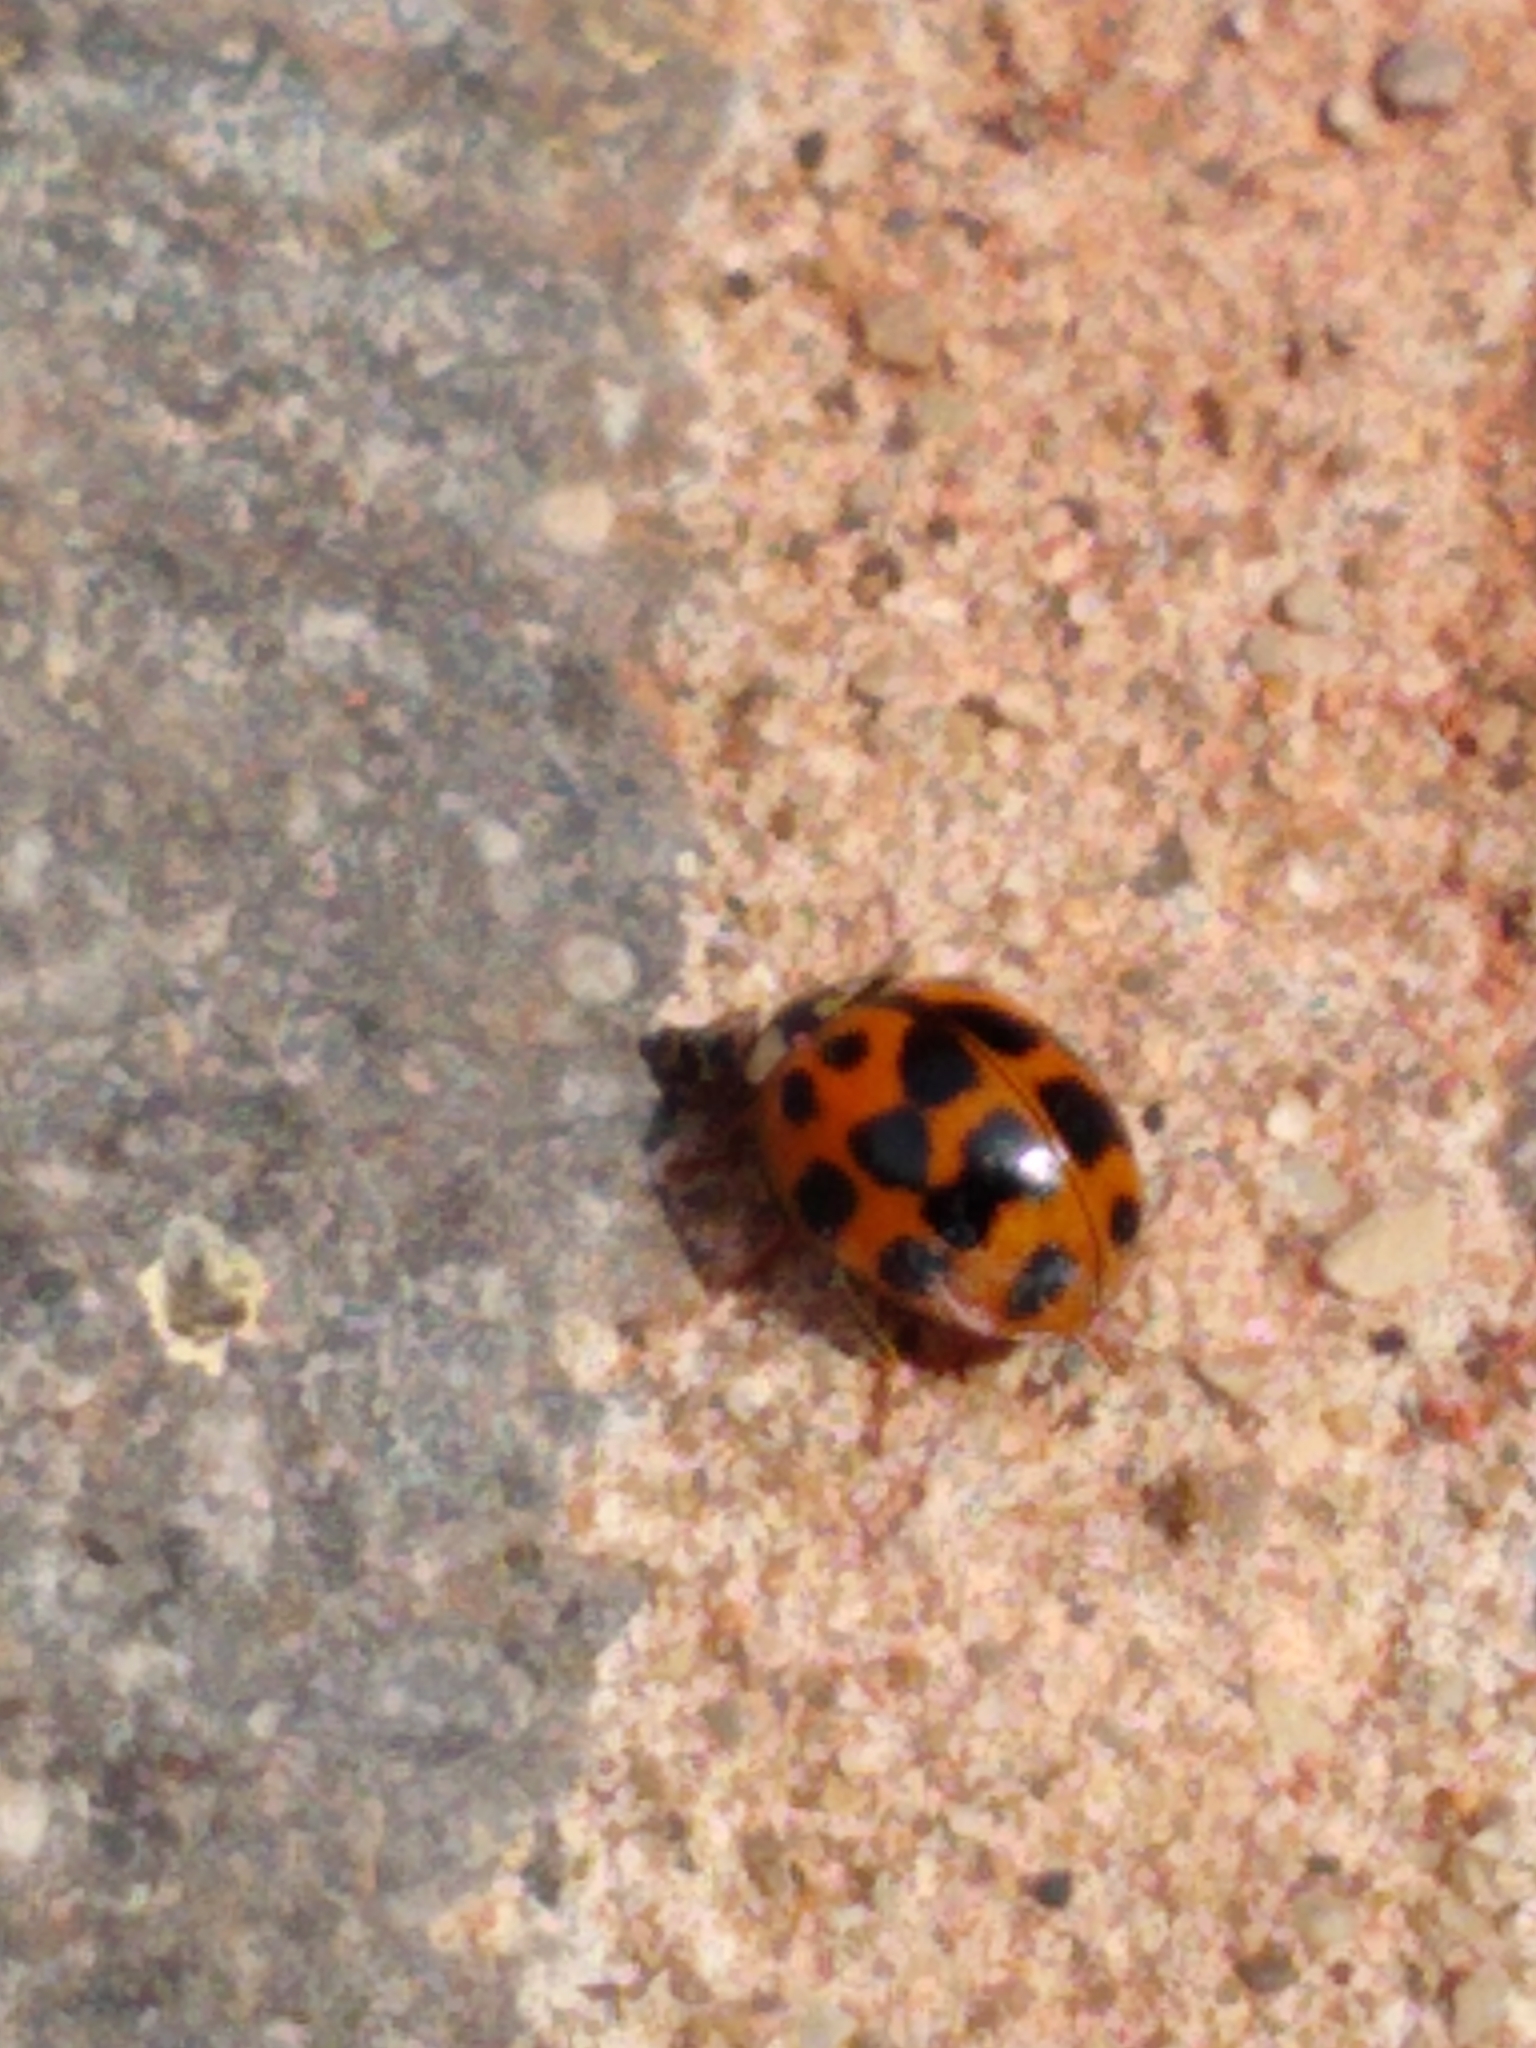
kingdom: Animalia
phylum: Arthropoda
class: Insecta
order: Coleoptera
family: Coccinellidae
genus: Harmonia
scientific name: Harmonia axyridis
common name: Harlequin ladybird
